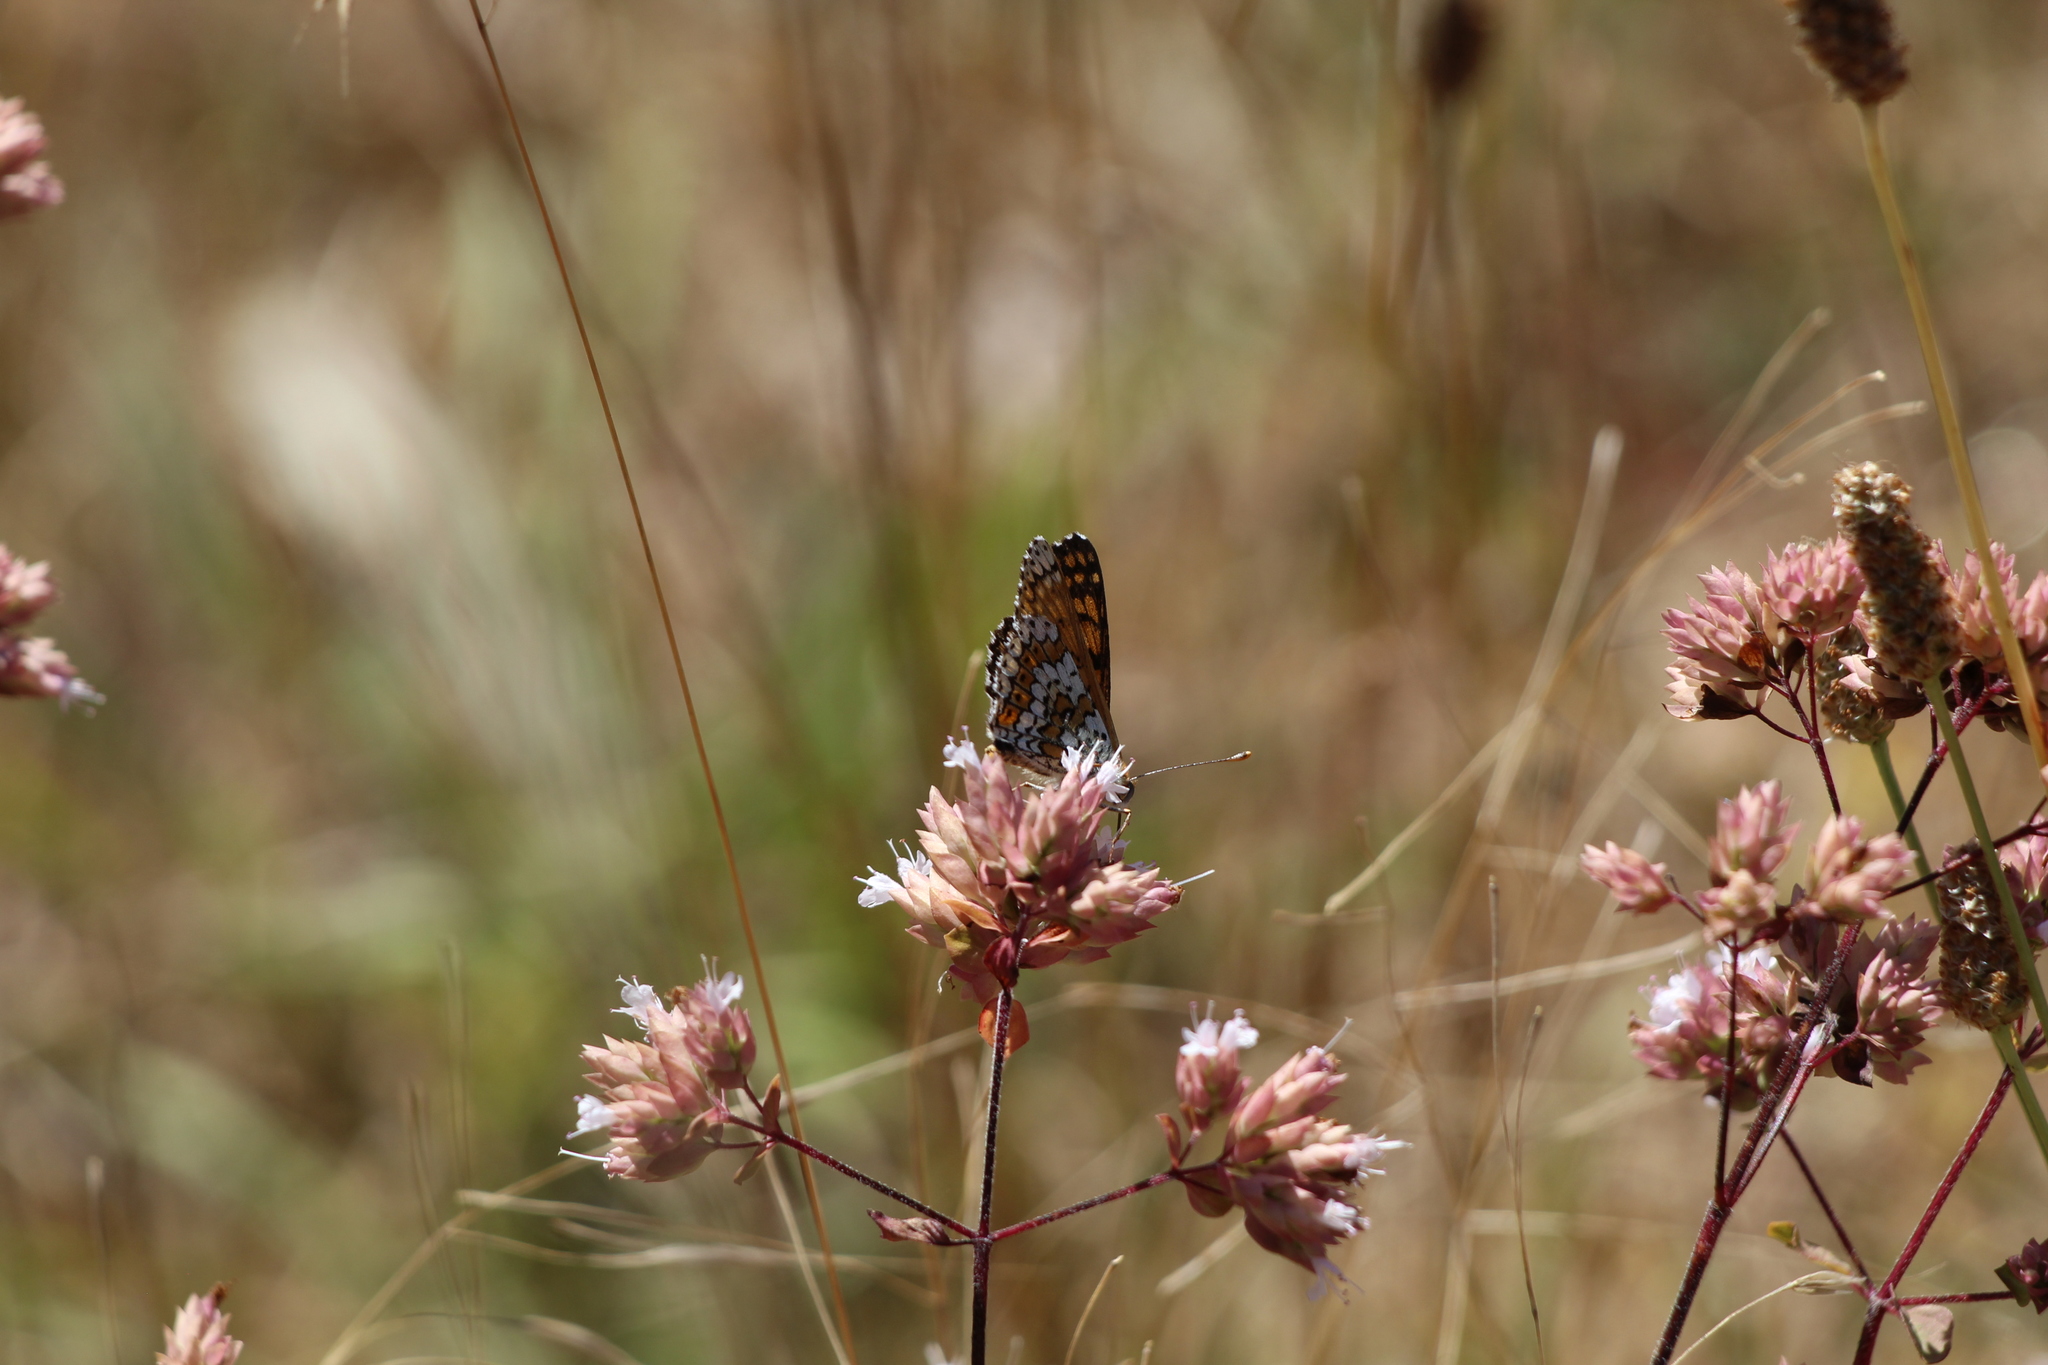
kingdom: Animalia
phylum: Arthropoda
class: Insecta
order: Lepidoptera
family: Nymphalidae
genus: Melitaea
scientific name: Melitaea cinxia
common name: Glanville fritillary
